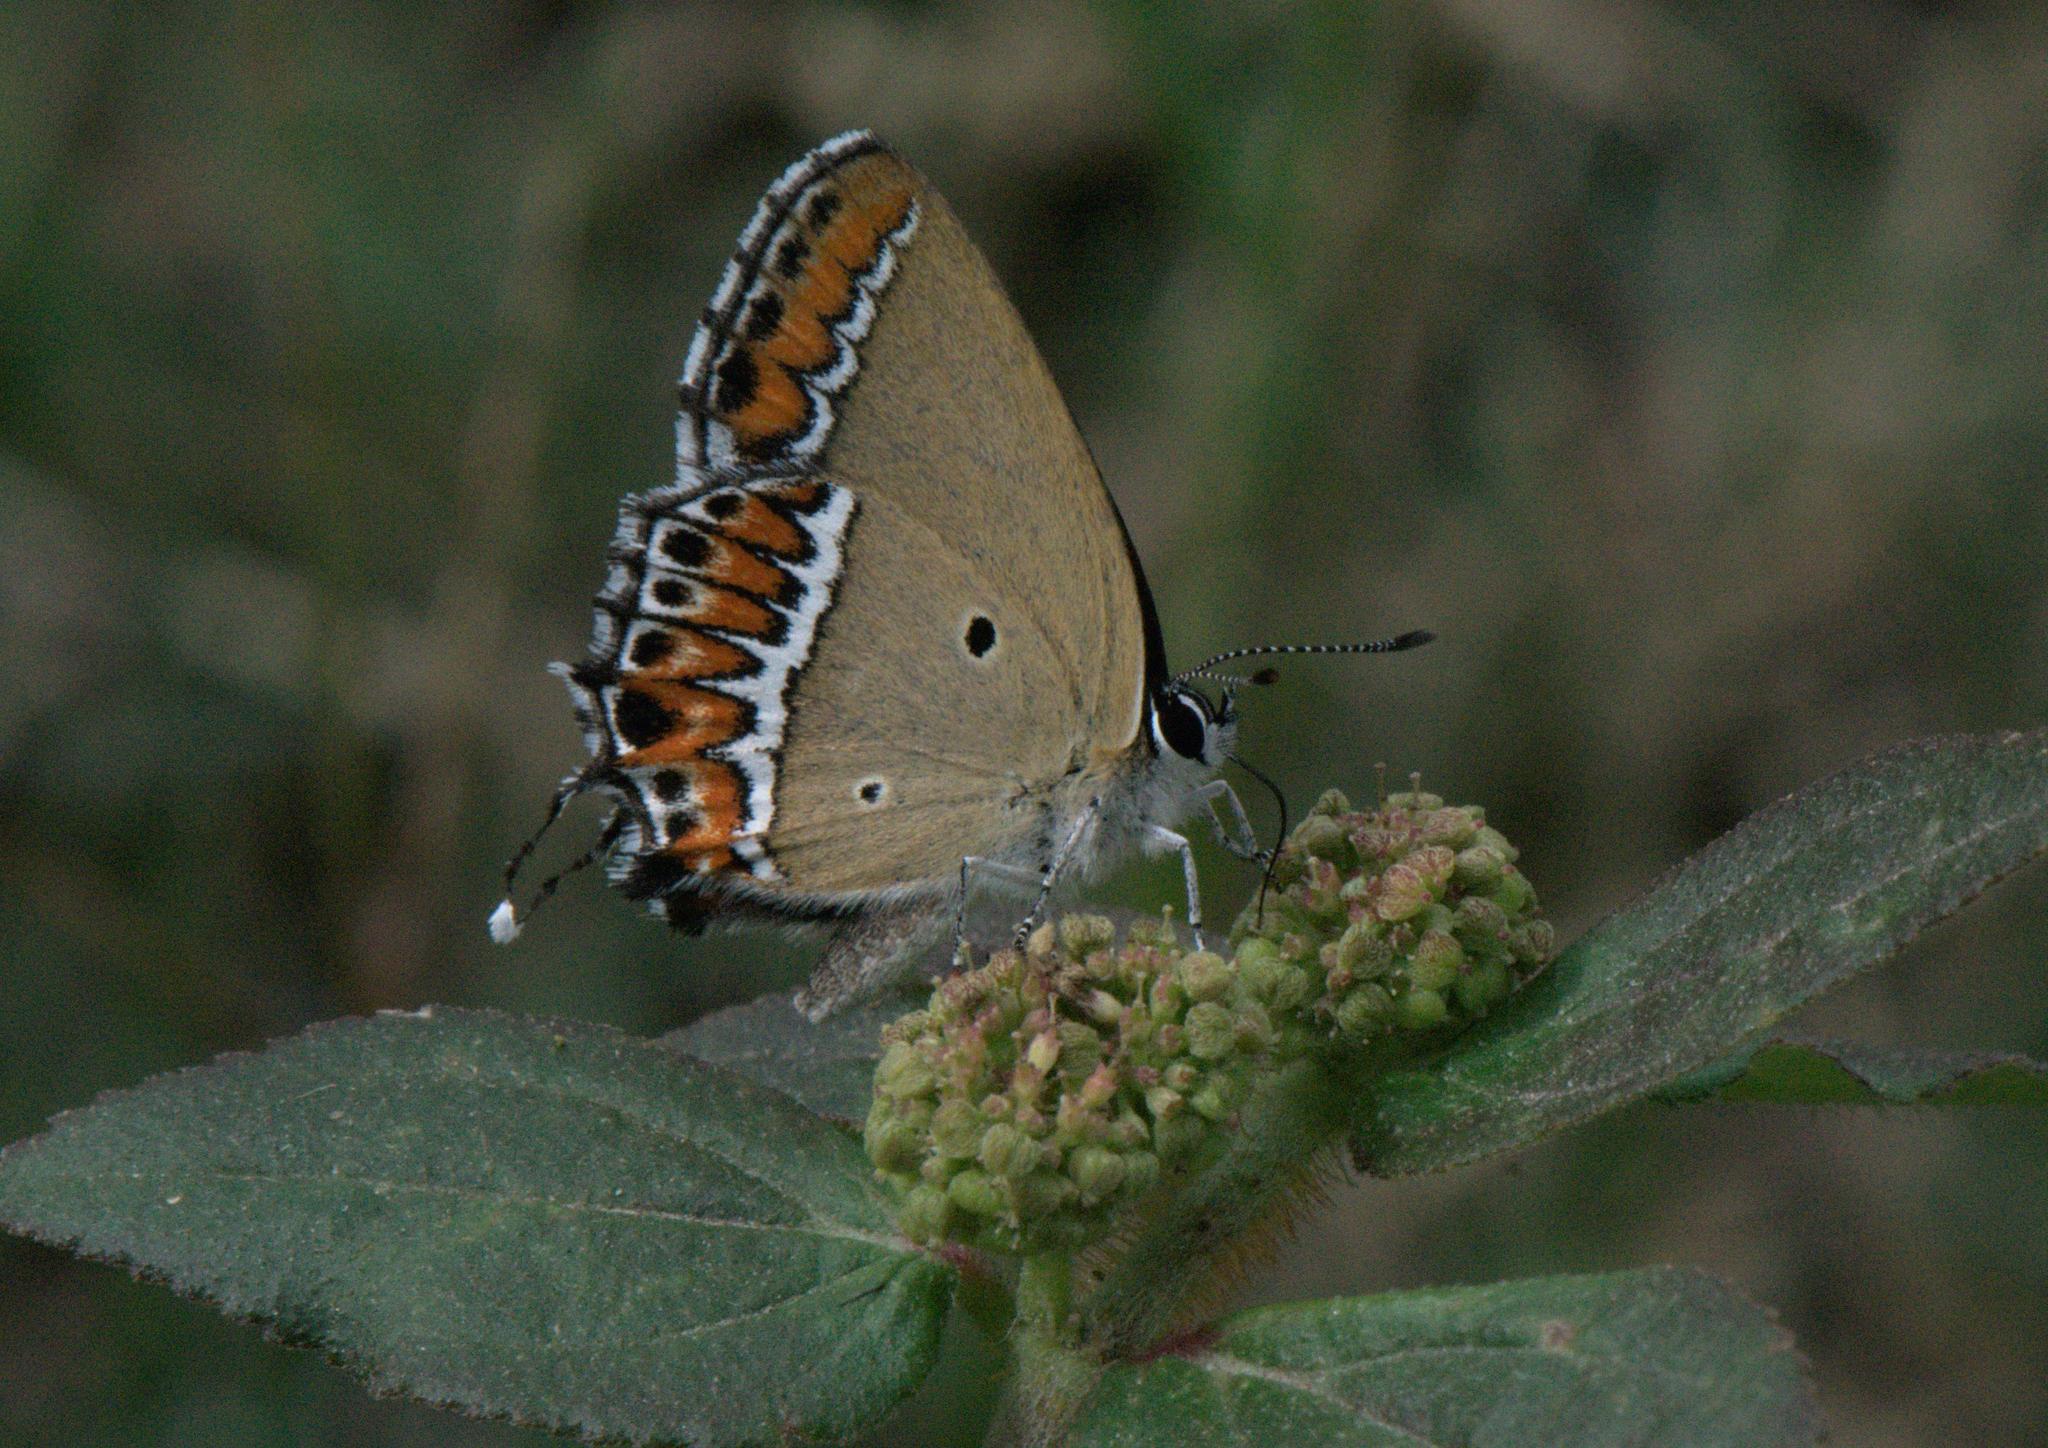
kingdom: Animalia
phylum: Arthropoda
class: Insecta
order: Lepidoptera
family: Lycaenidae
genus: Heliophorus
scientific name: Heliophorus sena
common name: Sorrel sapphire
